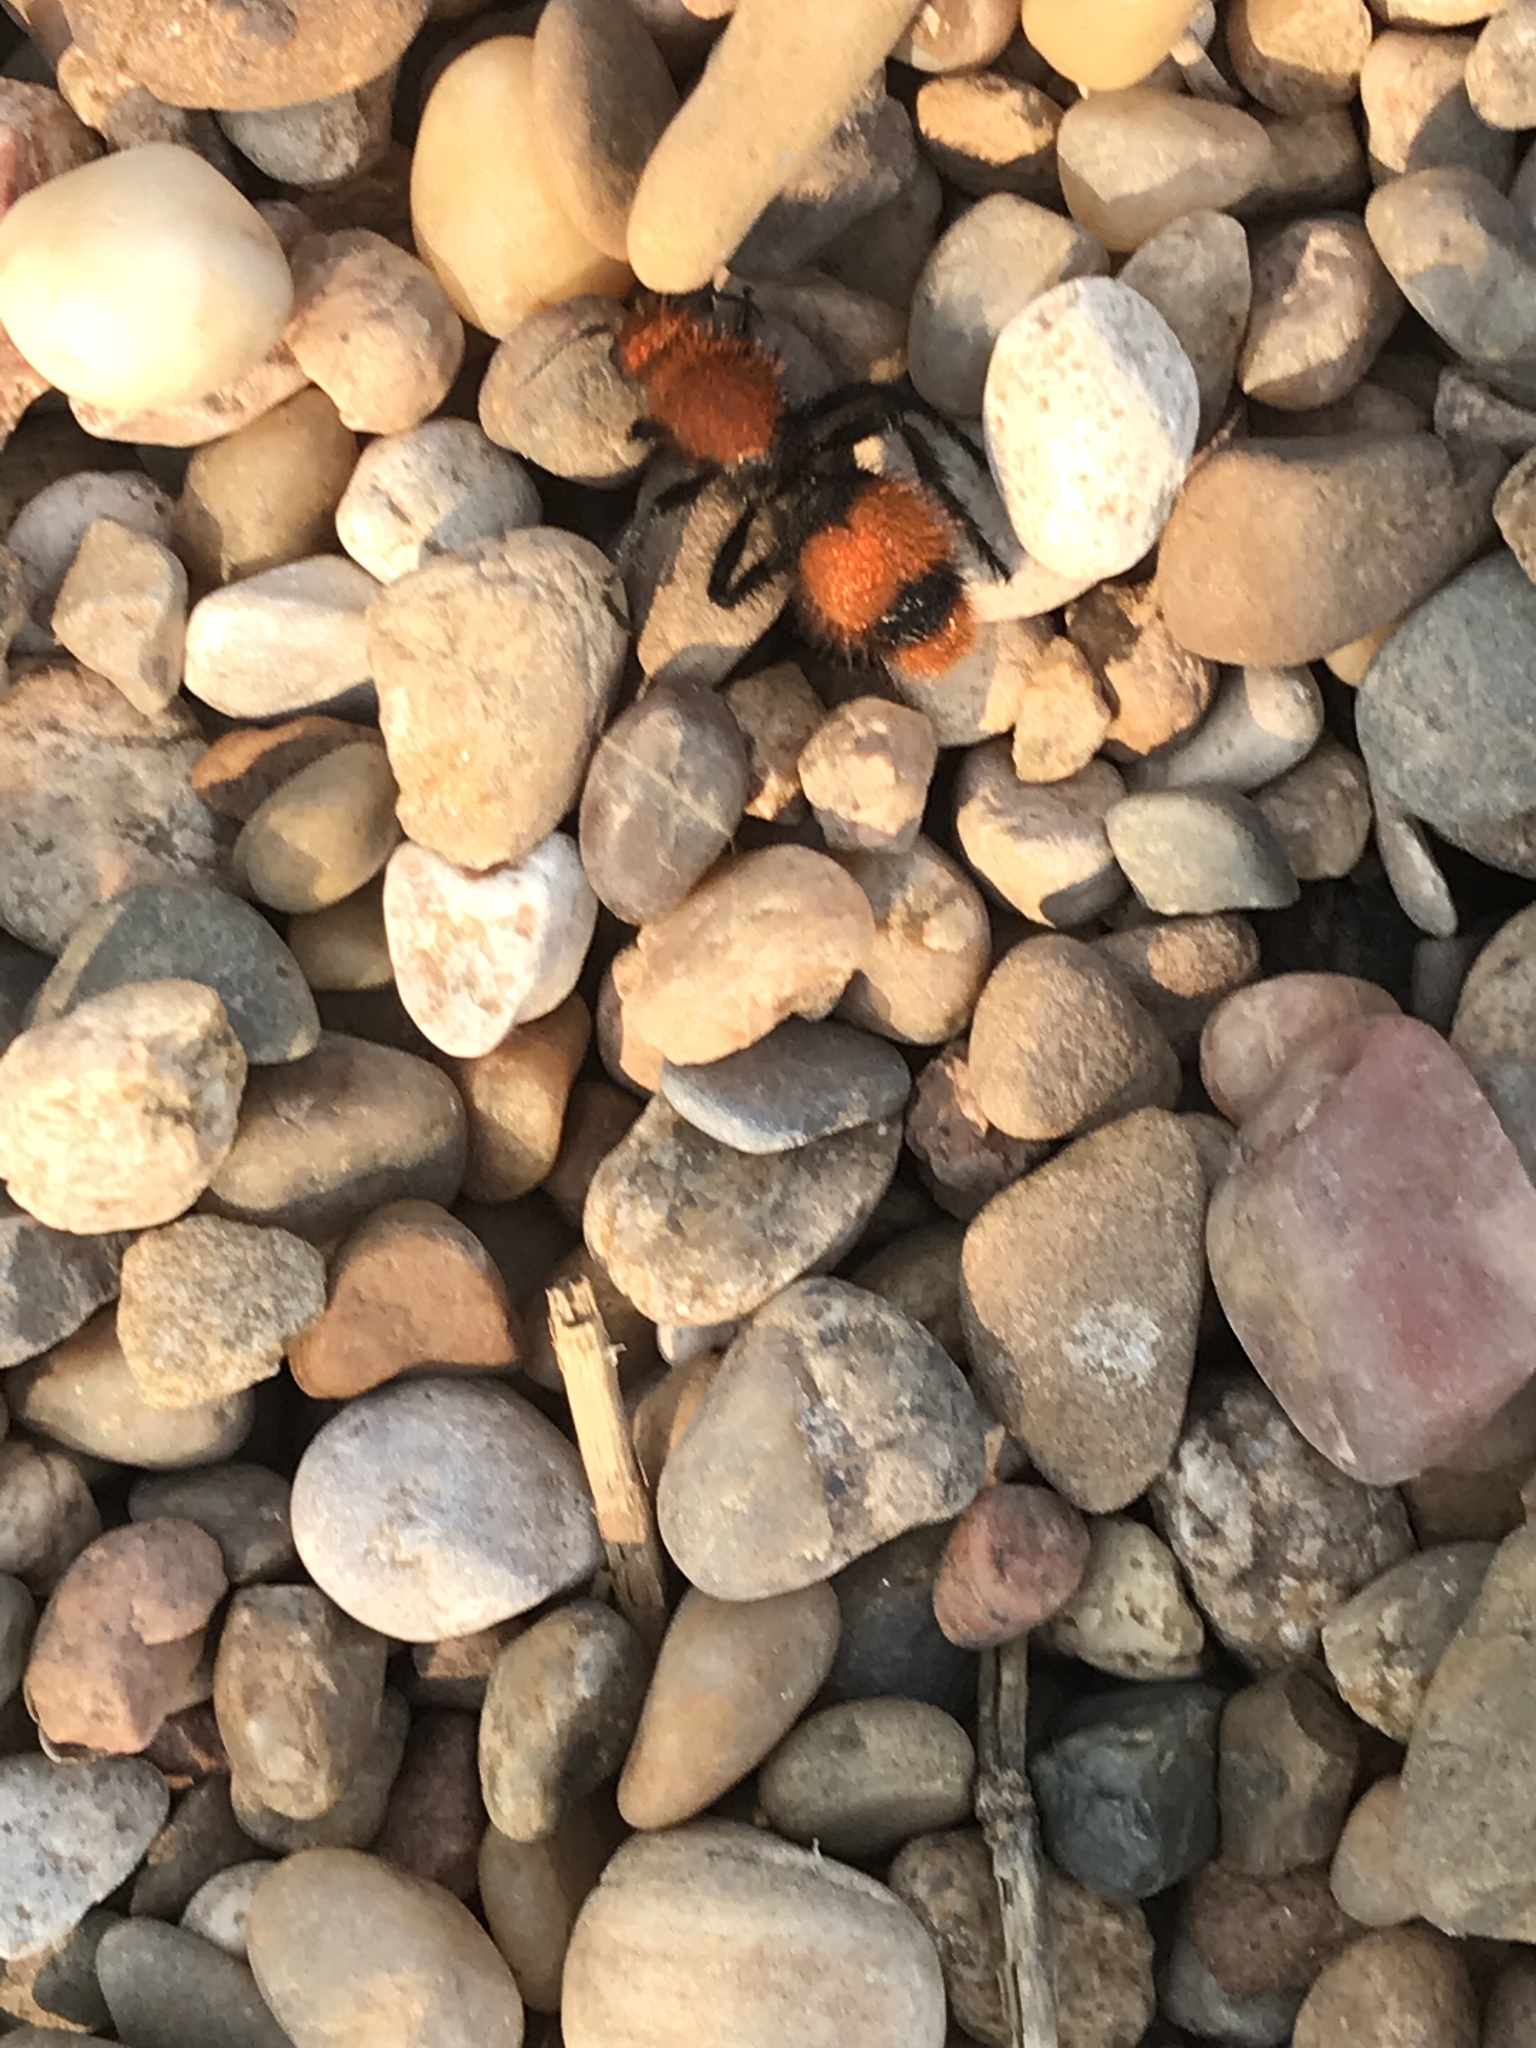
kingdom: Animalia
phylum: Arthropoda
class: Insecta
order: Hymenoptera
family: Mutillidae
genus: Dasymutilla
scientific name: Dasymutilla occidentalis
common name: Common eastern velvet ant
